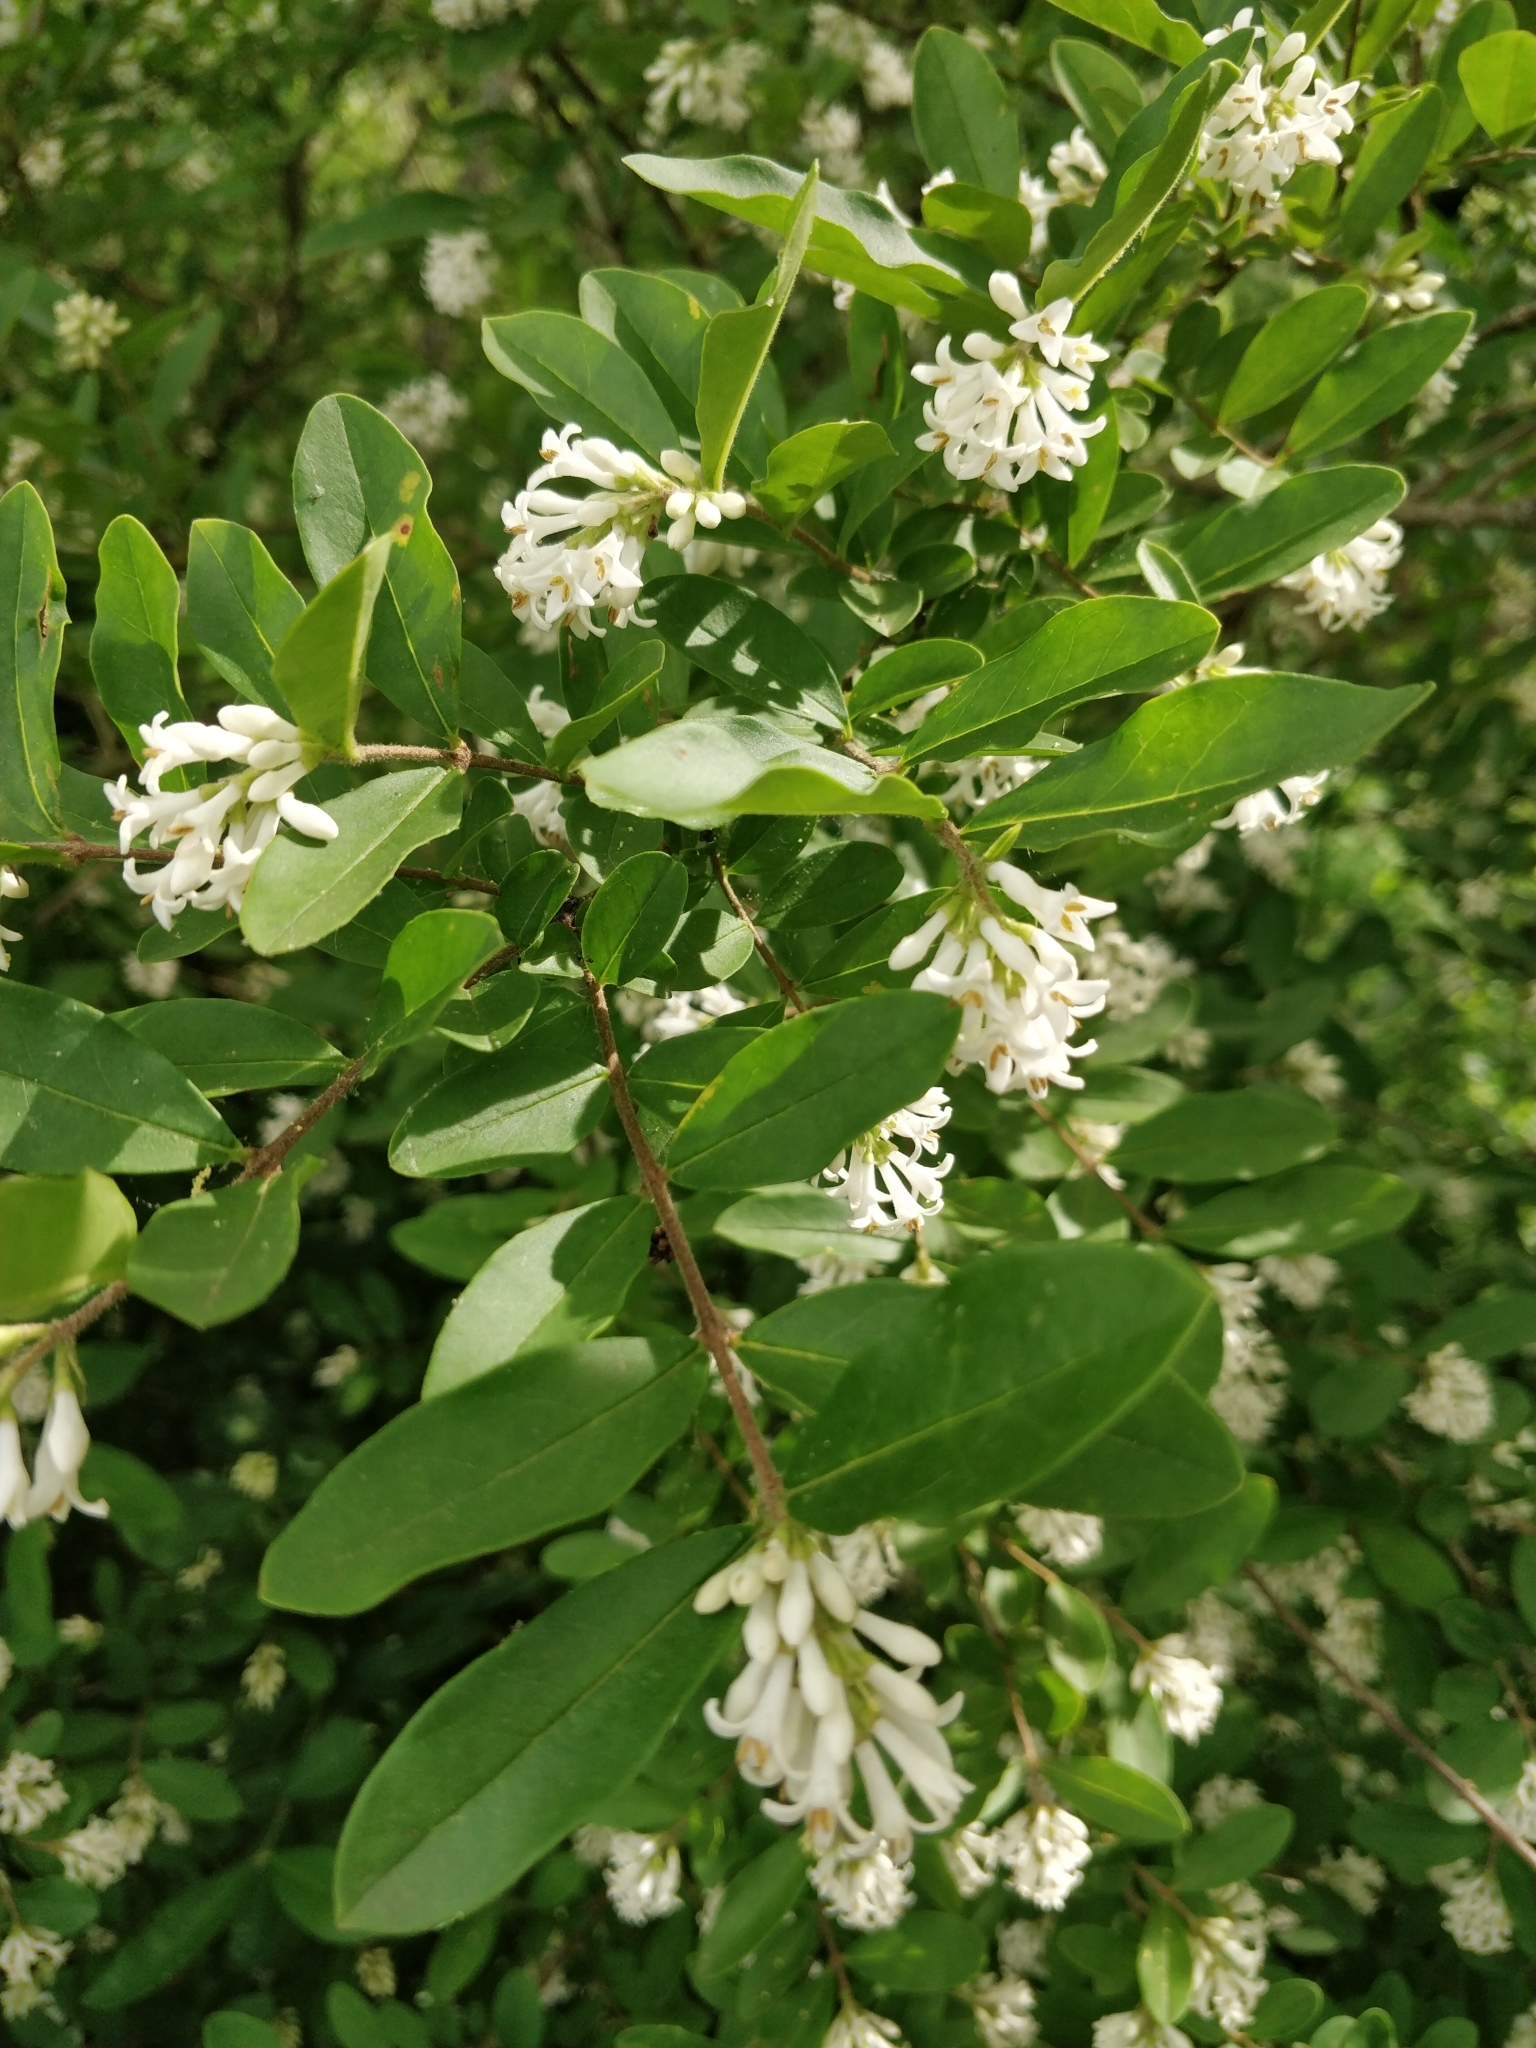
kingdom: Plantae
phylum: Tracheophyta
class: Magnoliopsida
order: Lamiales
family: Oleaceae
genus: Ligustrum
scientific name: Ligustrum obtusifolium
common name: Border privet
